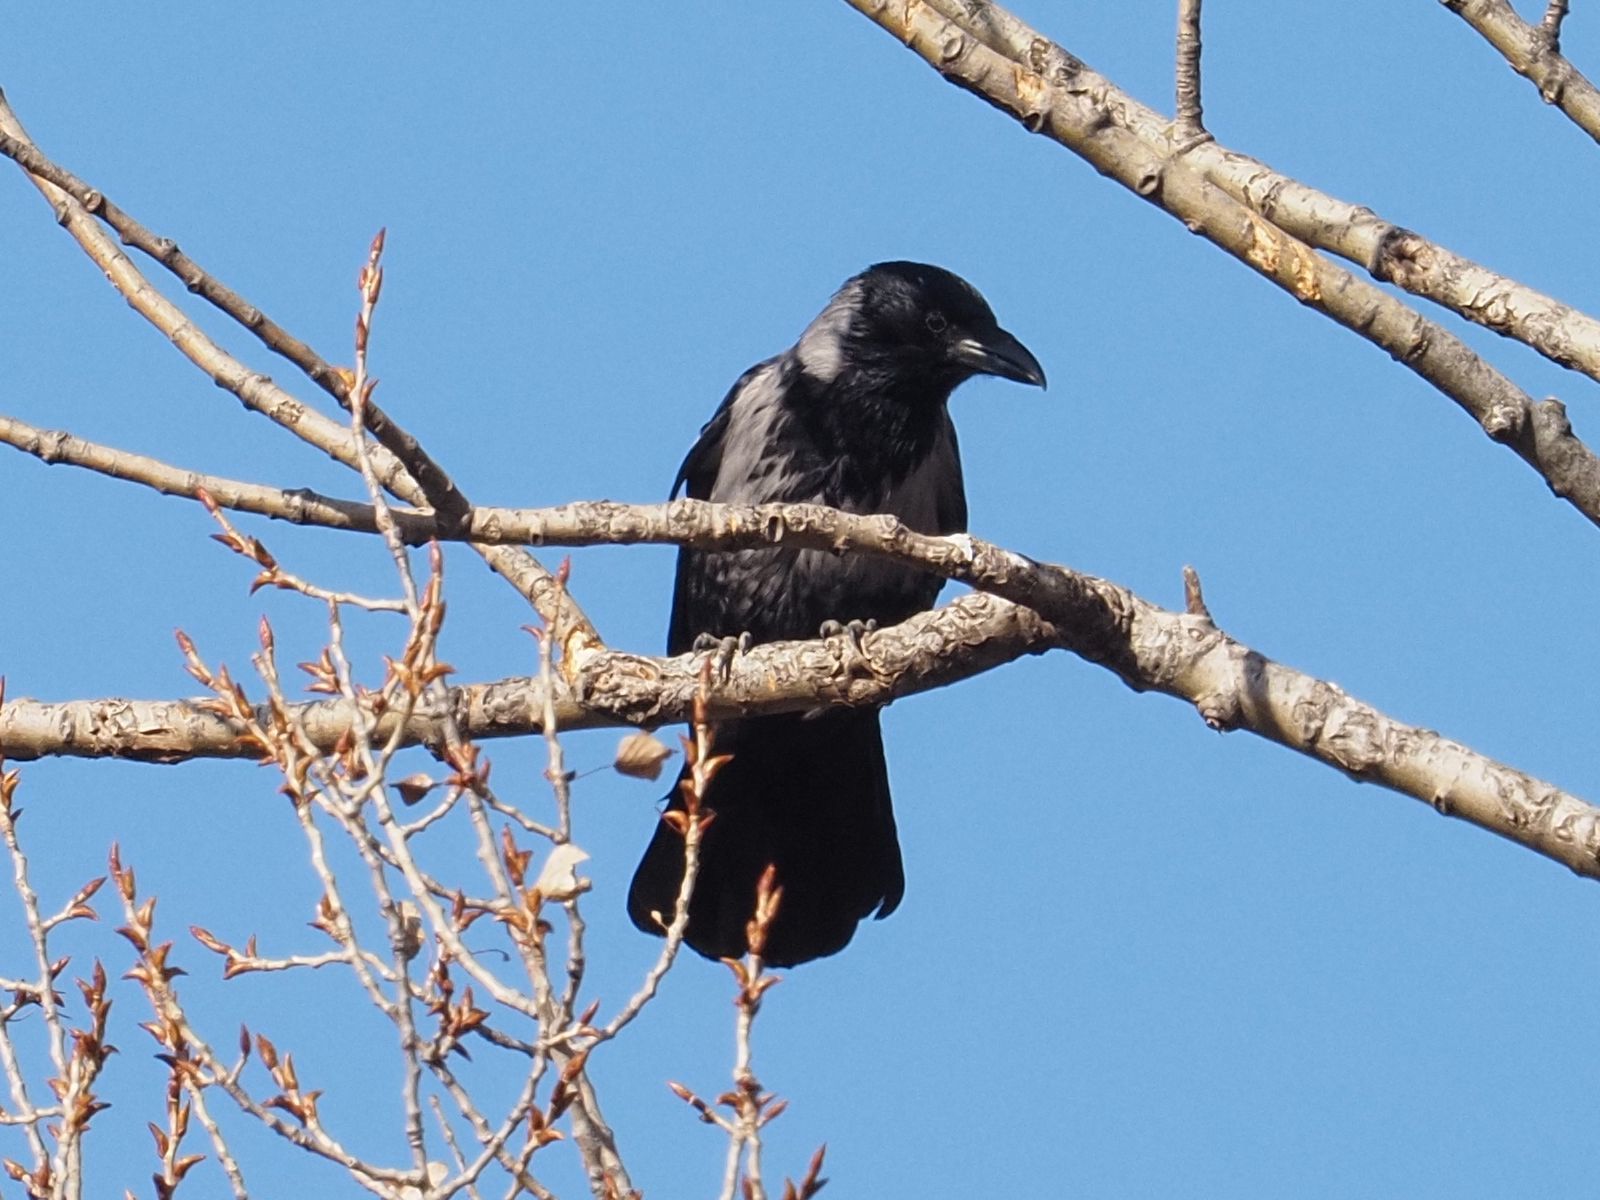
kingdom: Animalia
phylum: Chordata
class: Aves
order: Passeriformes
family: Corvidae
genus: Corvus
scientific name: Corvus
